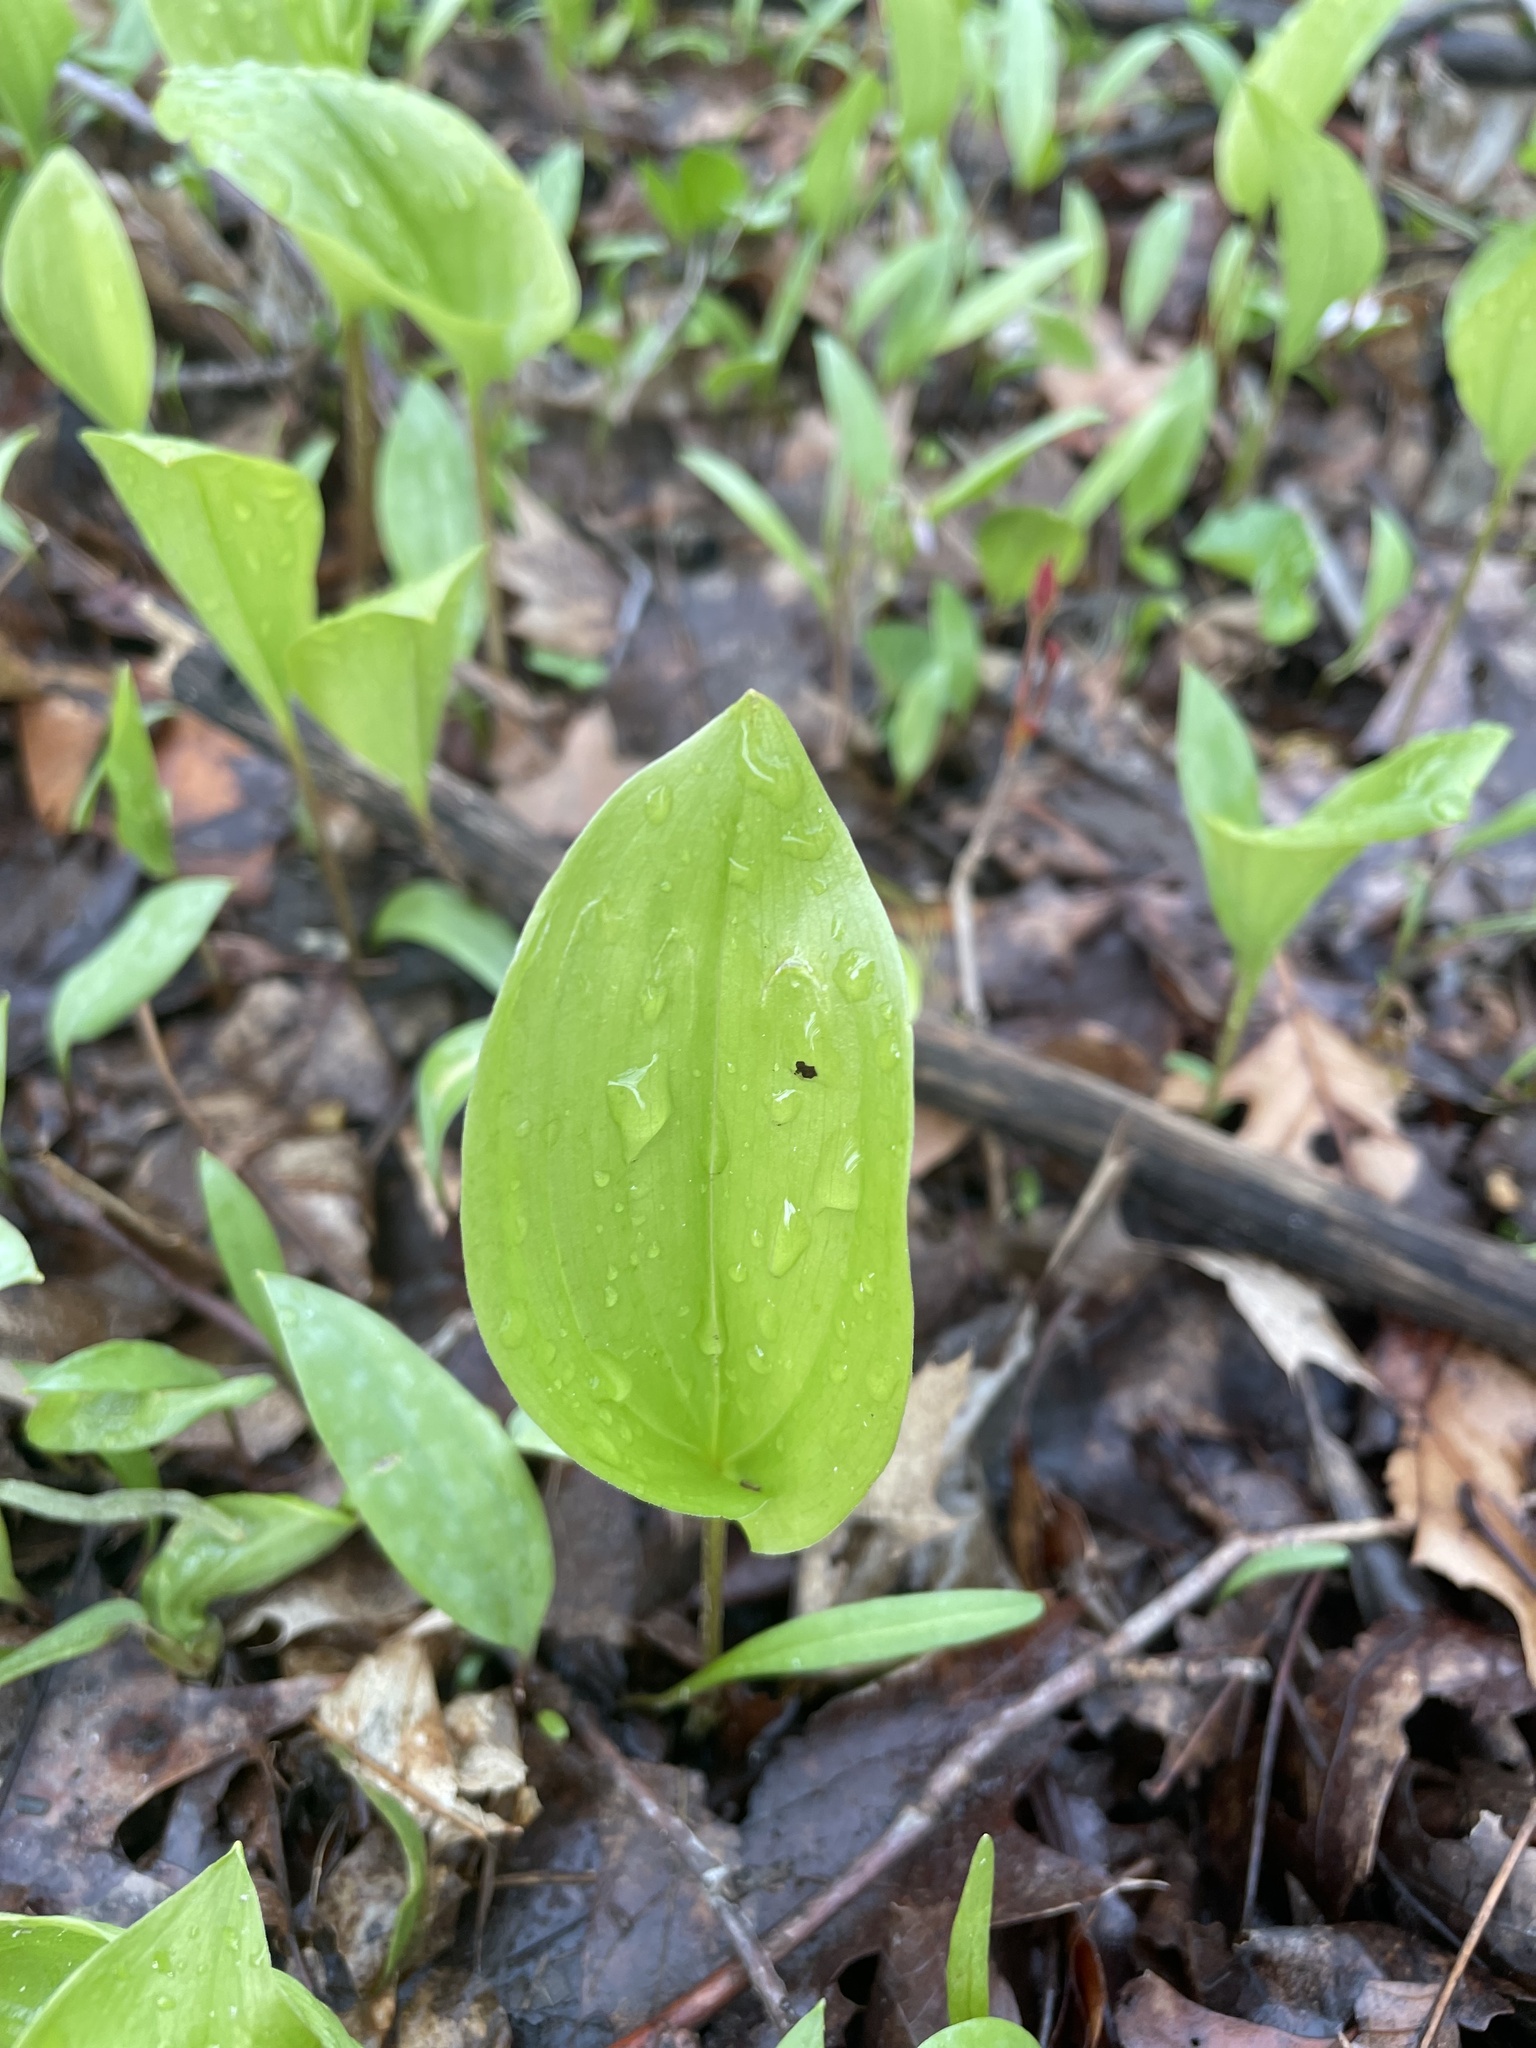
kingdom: Plantae
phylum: Tracheophyta
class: Liliopsida
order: Asparagales
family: Asparagaceae
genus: Maianthemum
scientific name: Maianthemum canadense
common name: False lily-of-the-valley
